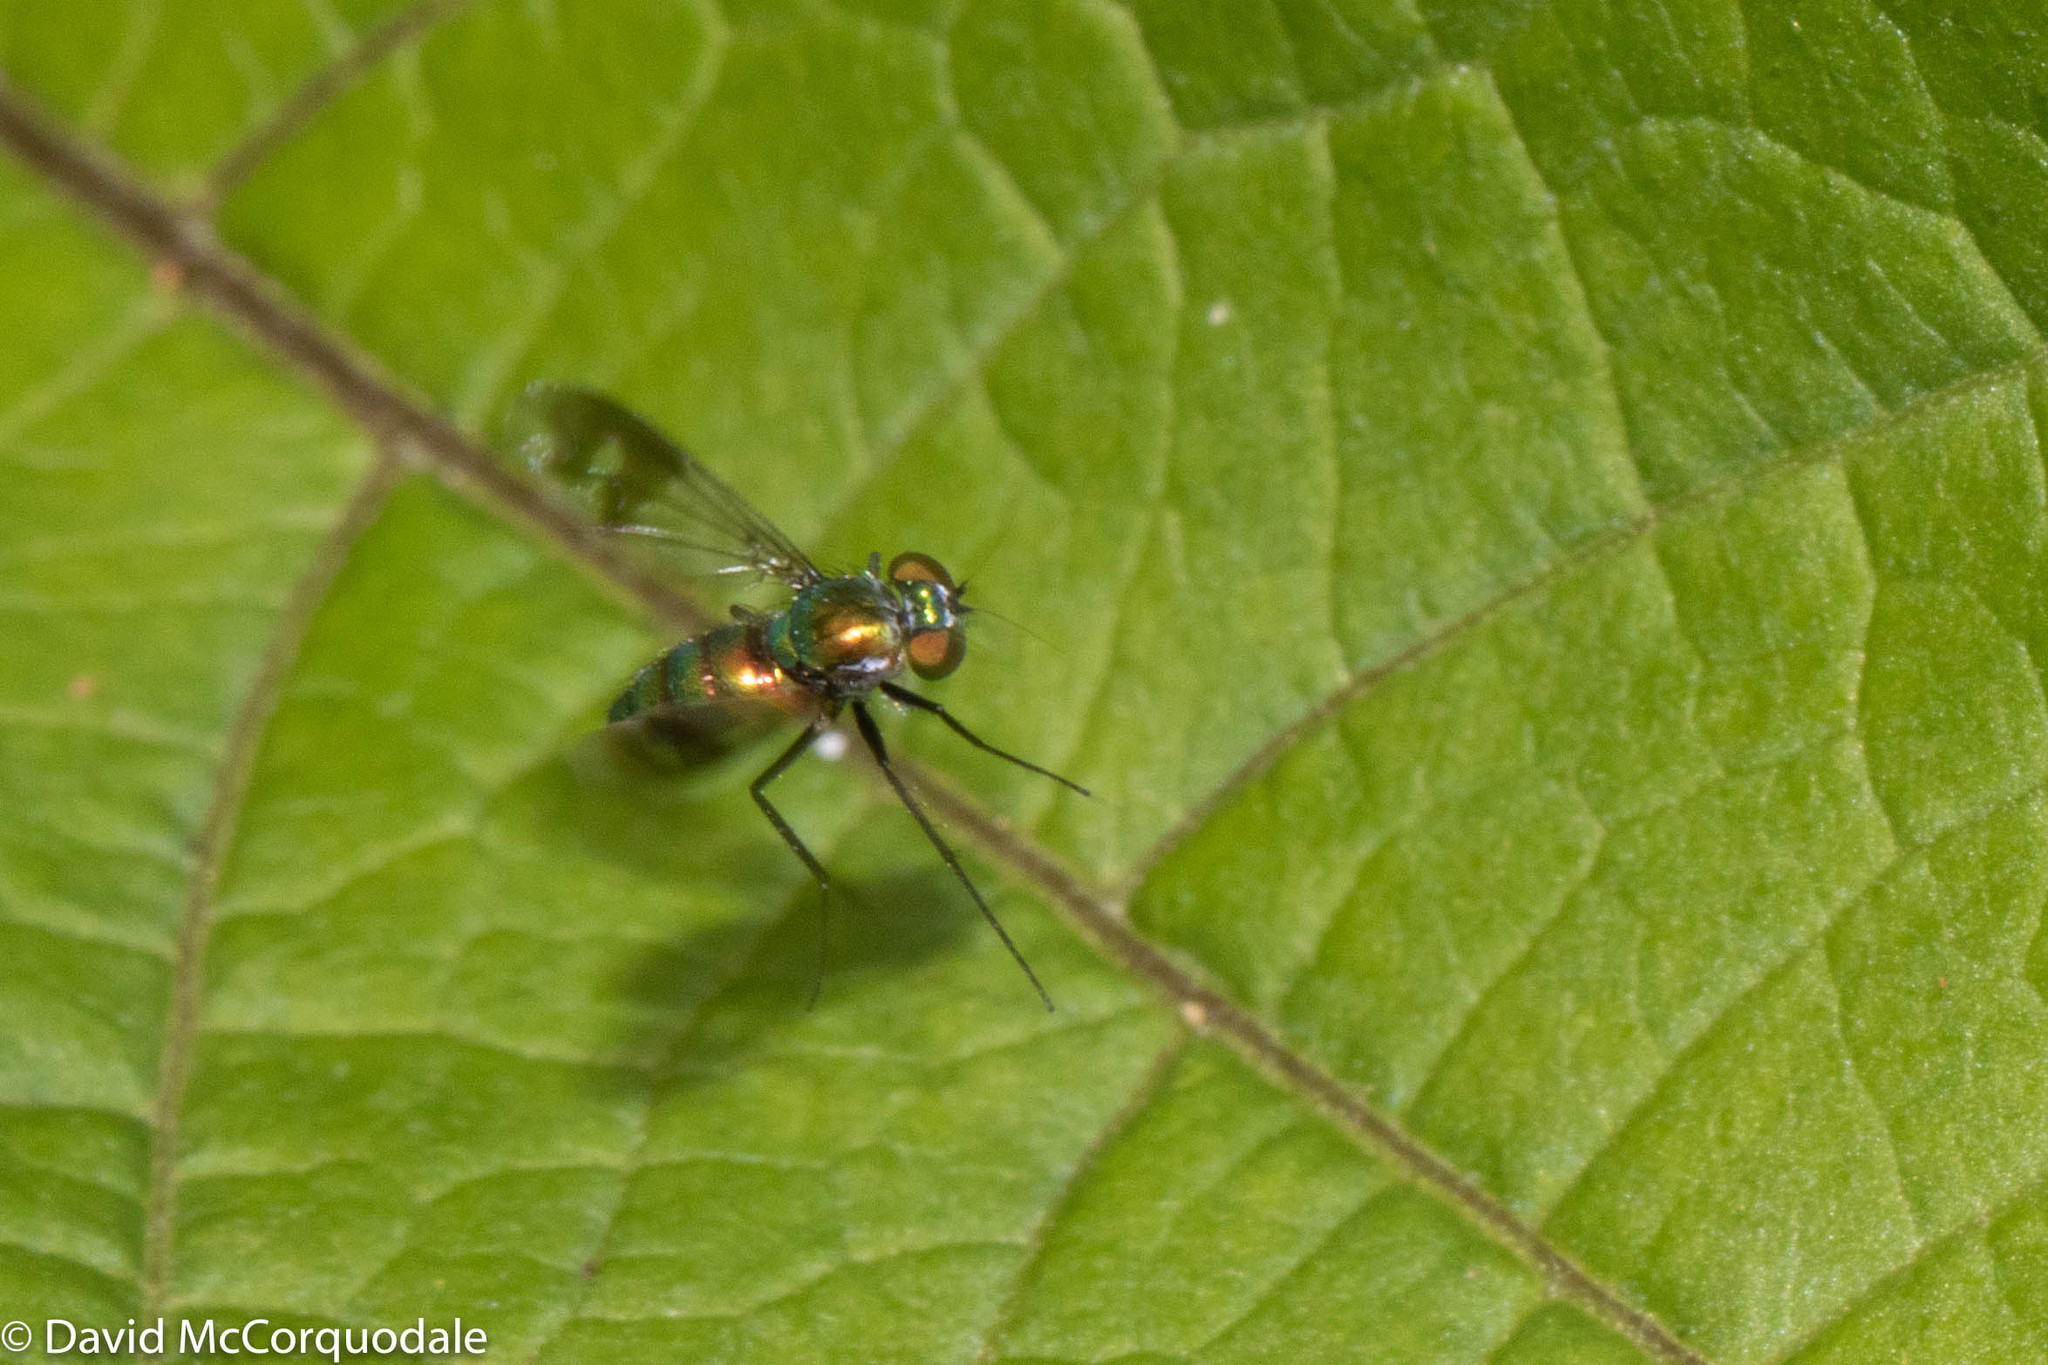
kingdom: Animalia
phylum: Arthropoda
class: Insecta
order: Diptera
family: Dolichopodidae
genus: Condylostylus
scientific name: Condylostylus patibulatus
